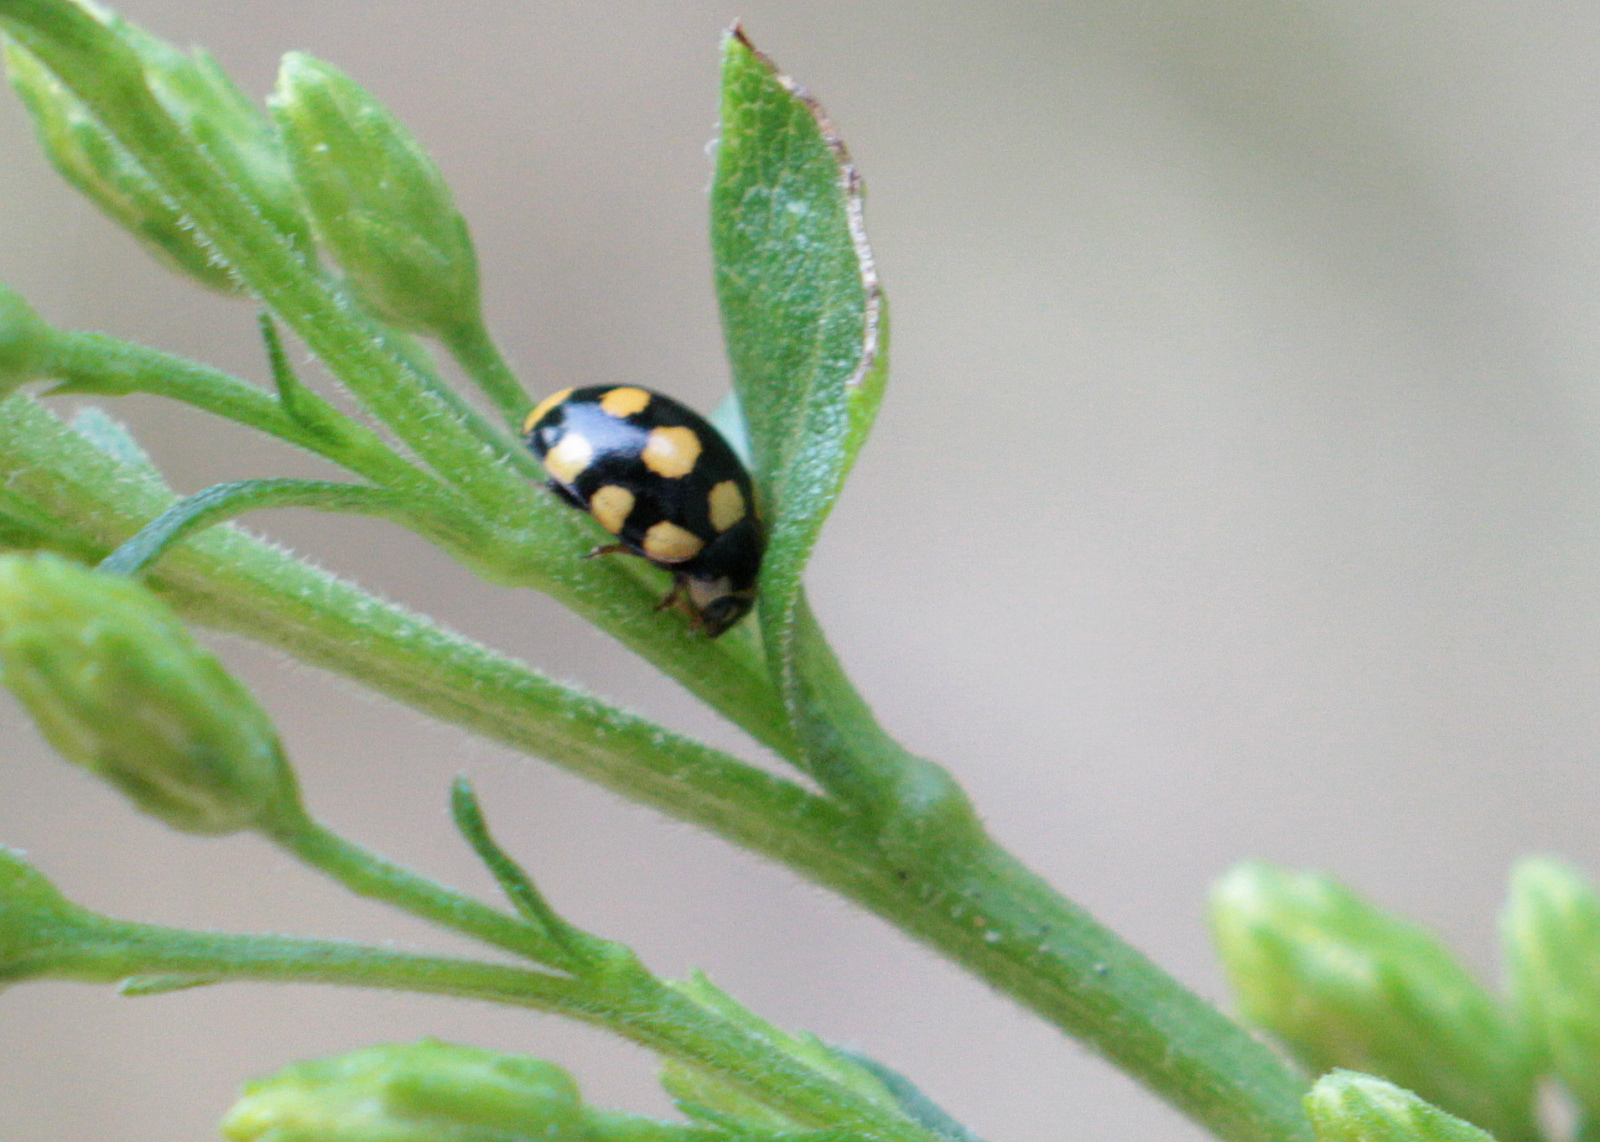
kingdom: Animalia
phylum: Arthropoda
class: Insecta
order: Coleoptera
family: Coccinellidae
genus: Coccinula
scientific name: Coccinula quatuordecimpustulata
